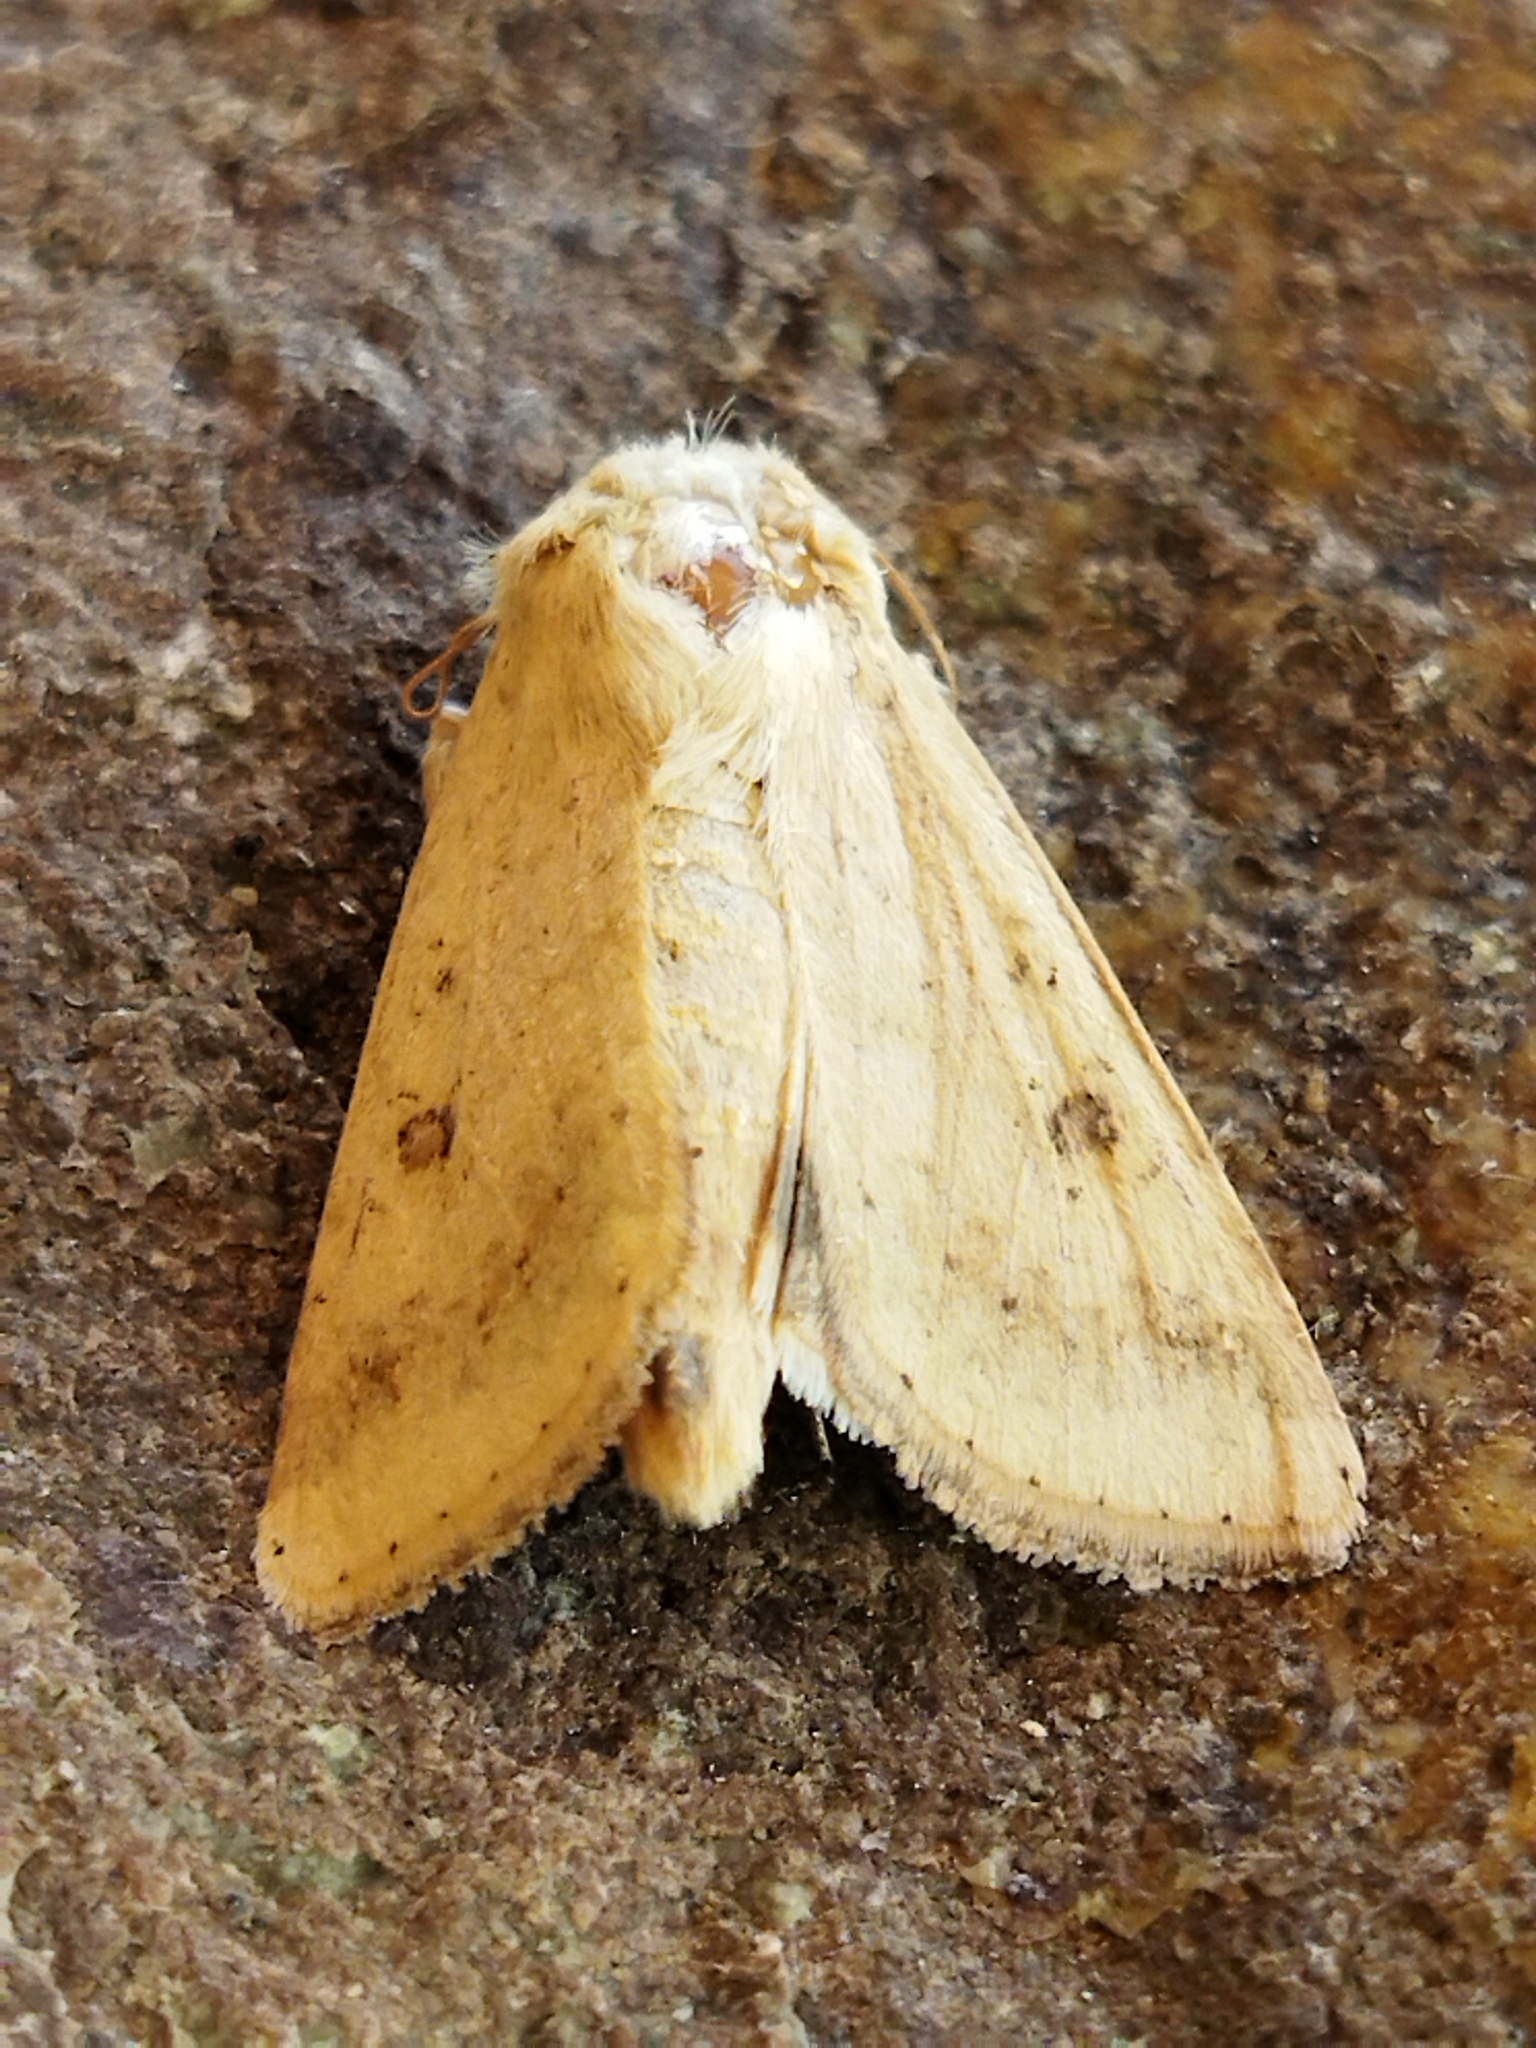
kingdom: Animalia
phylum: Arthropoda
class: Insecta
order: Lepidoptera
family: Noctuidae
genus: Helicoverpa
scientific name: Helicoverpa armigera
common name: Cotton bollworm
